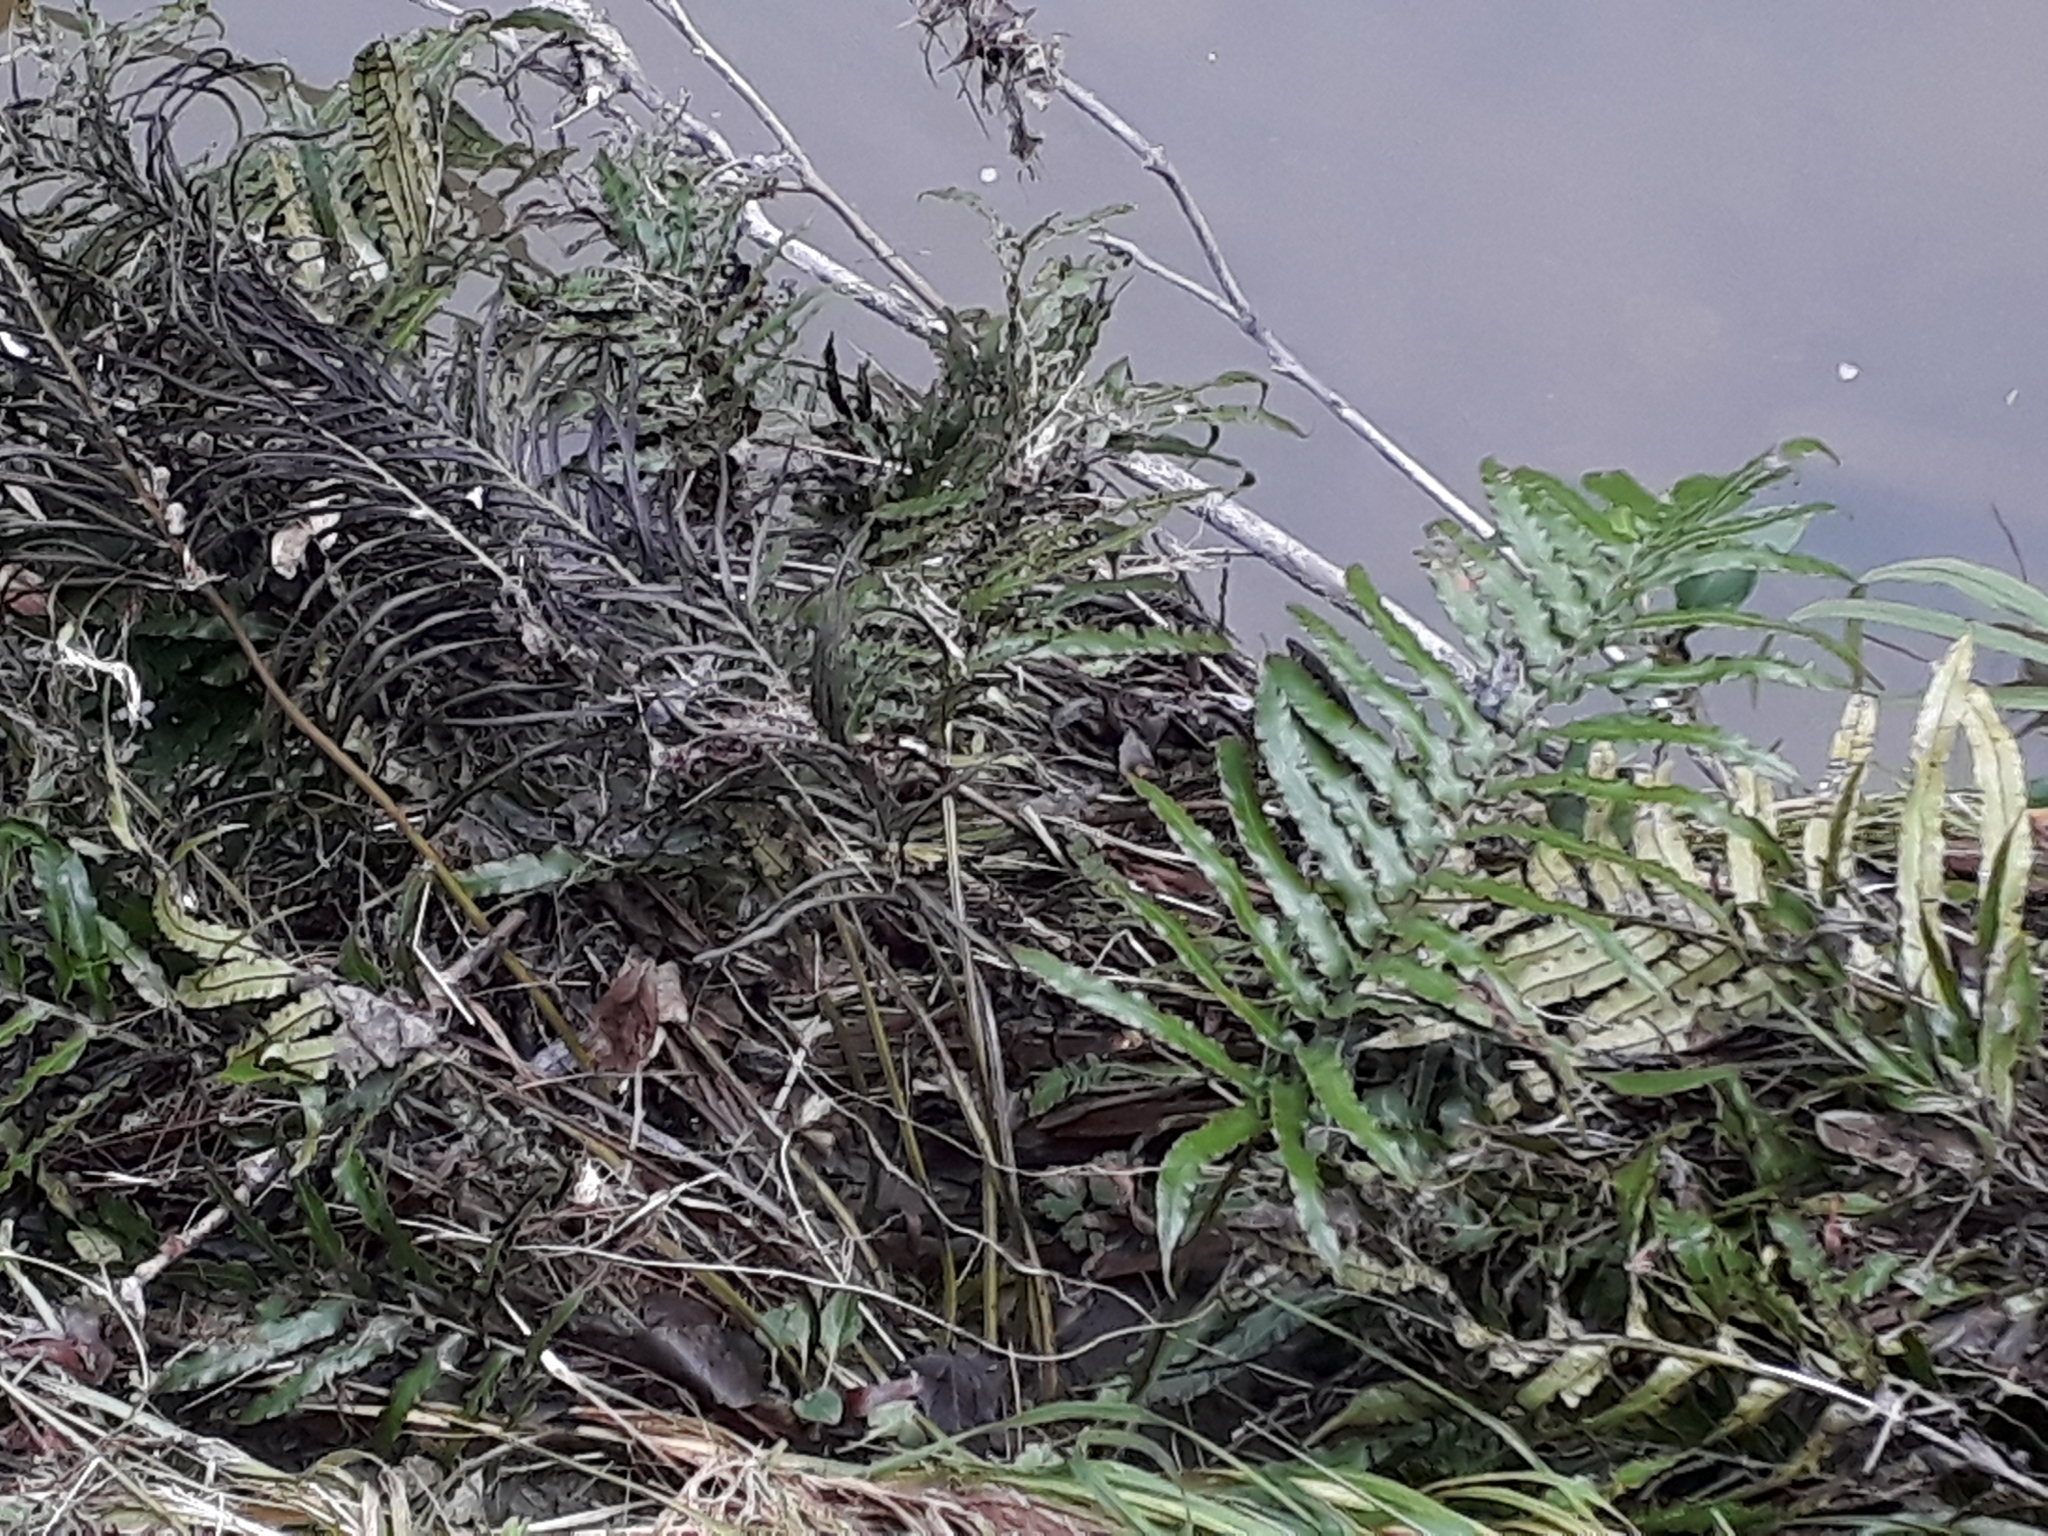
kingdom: Plantae
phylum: Tracheophyta
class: Polypodiopsida
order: Polypodiales
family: Blechnaceae
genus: Parablechnum
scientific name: Parablechnum triangularifolium
